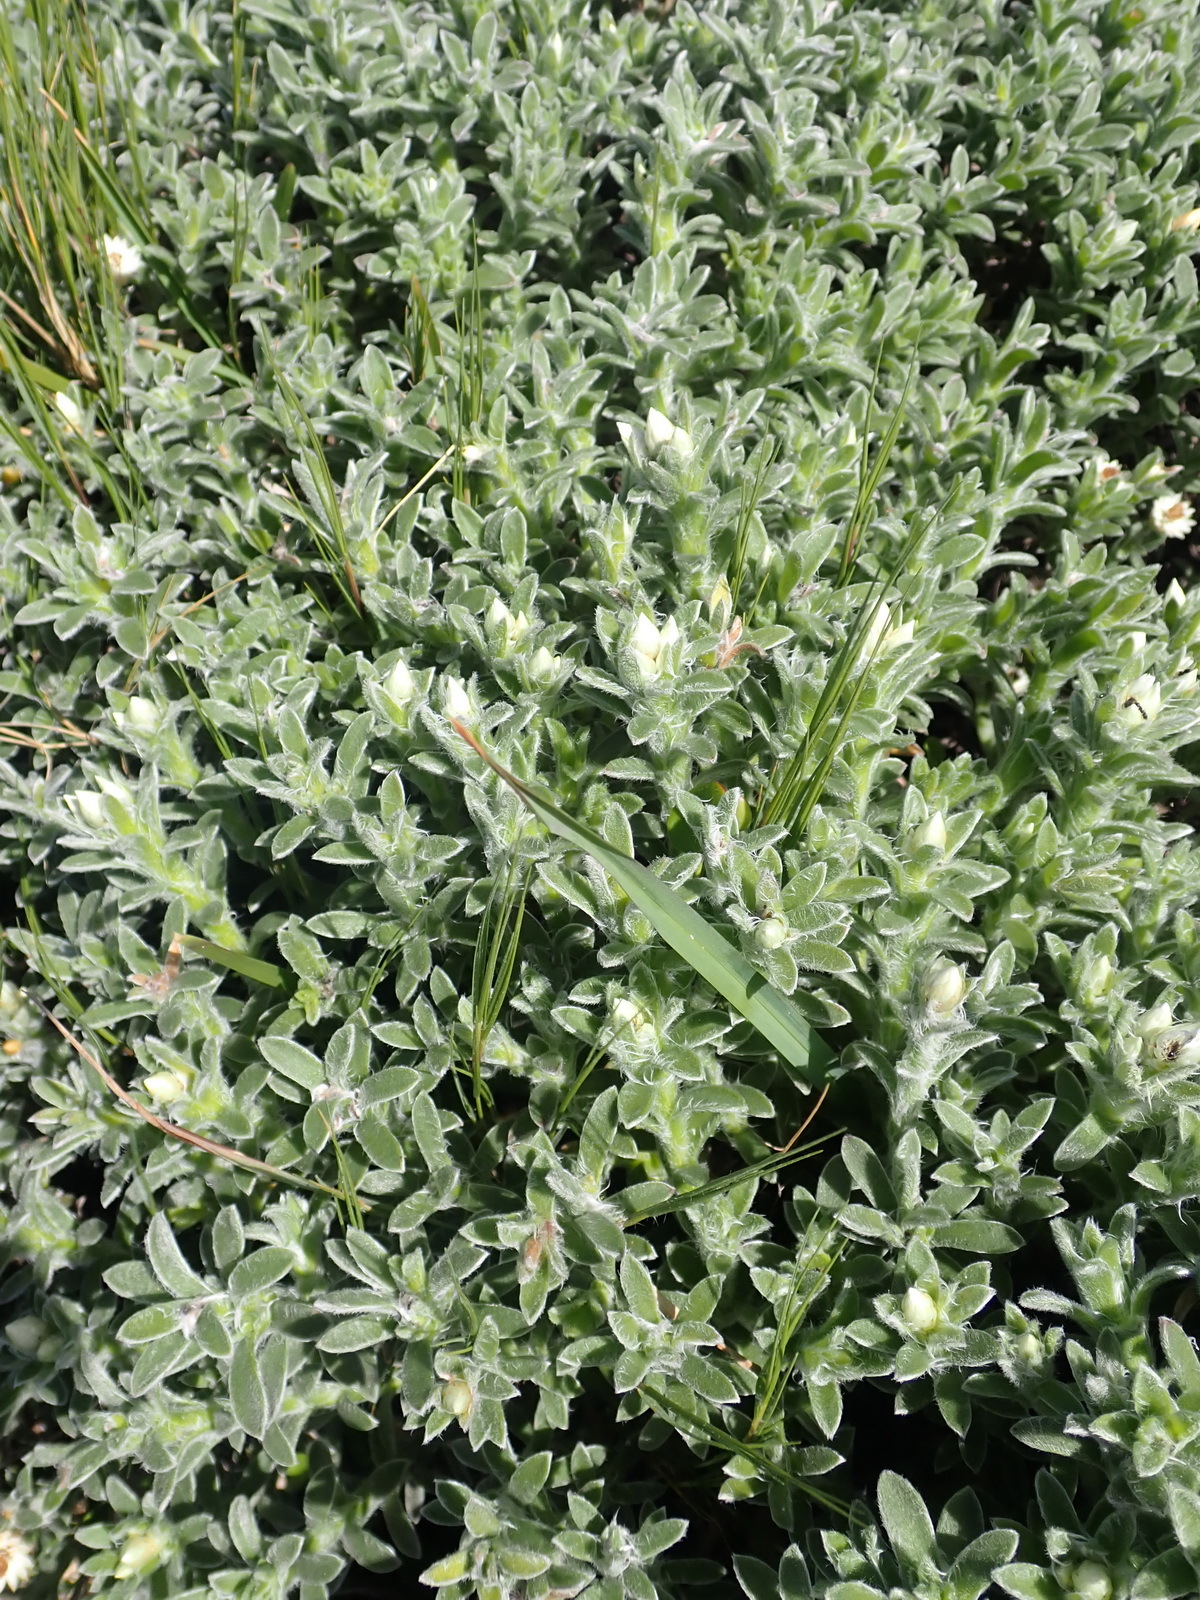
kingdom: Plantae
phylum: Tracheophyta
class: Magnoliopsida
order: Asterales
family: Asteraceae
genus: Achyranthemum
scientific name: Achyranthemum sordescens
